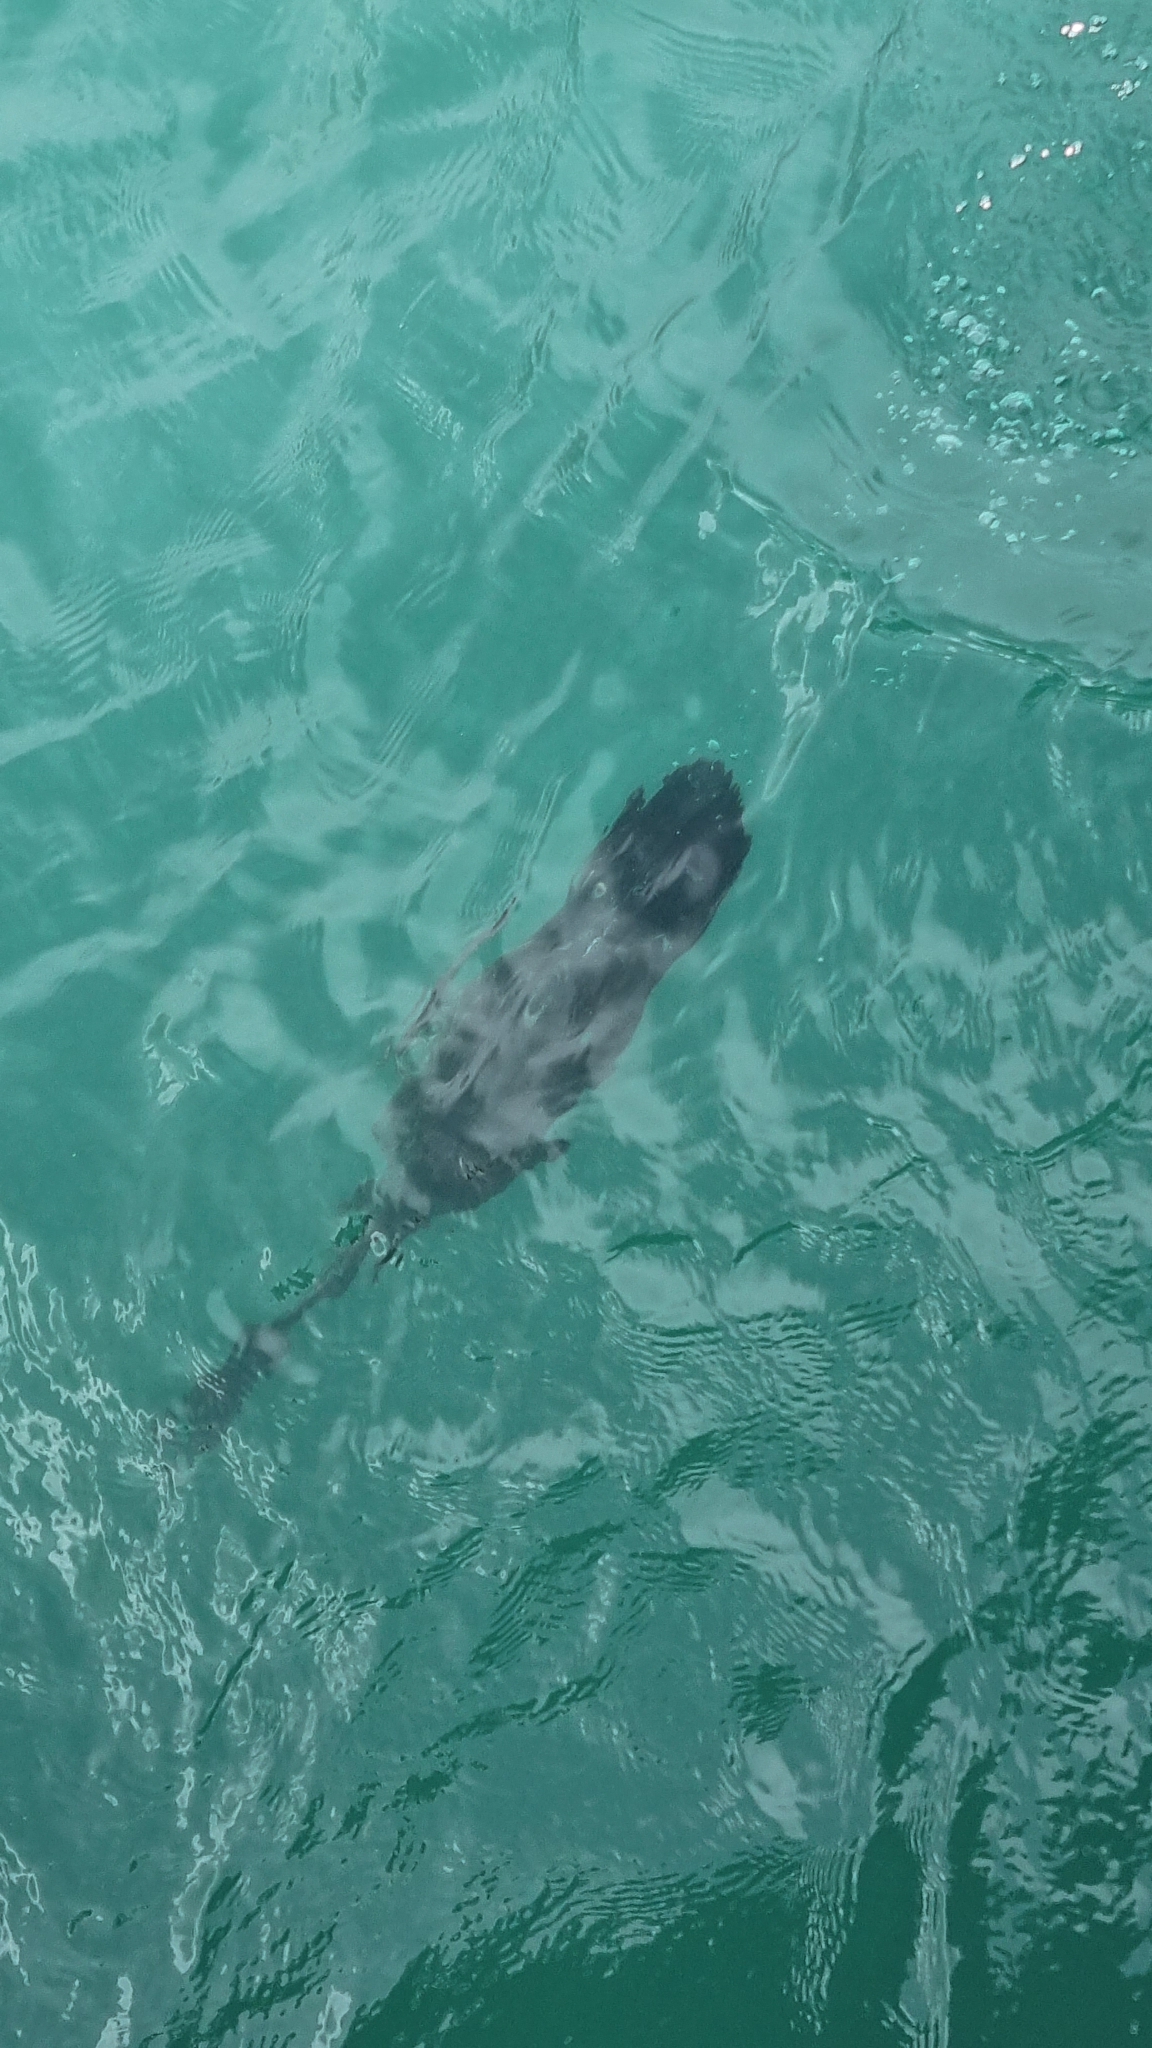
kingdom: Animalia
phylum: Chordata
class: Aves
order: Suliformes
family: Phalacrocoracidae
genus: Phalacrocorax
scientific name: Phalacrocorax varius
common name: Pied cormorant
